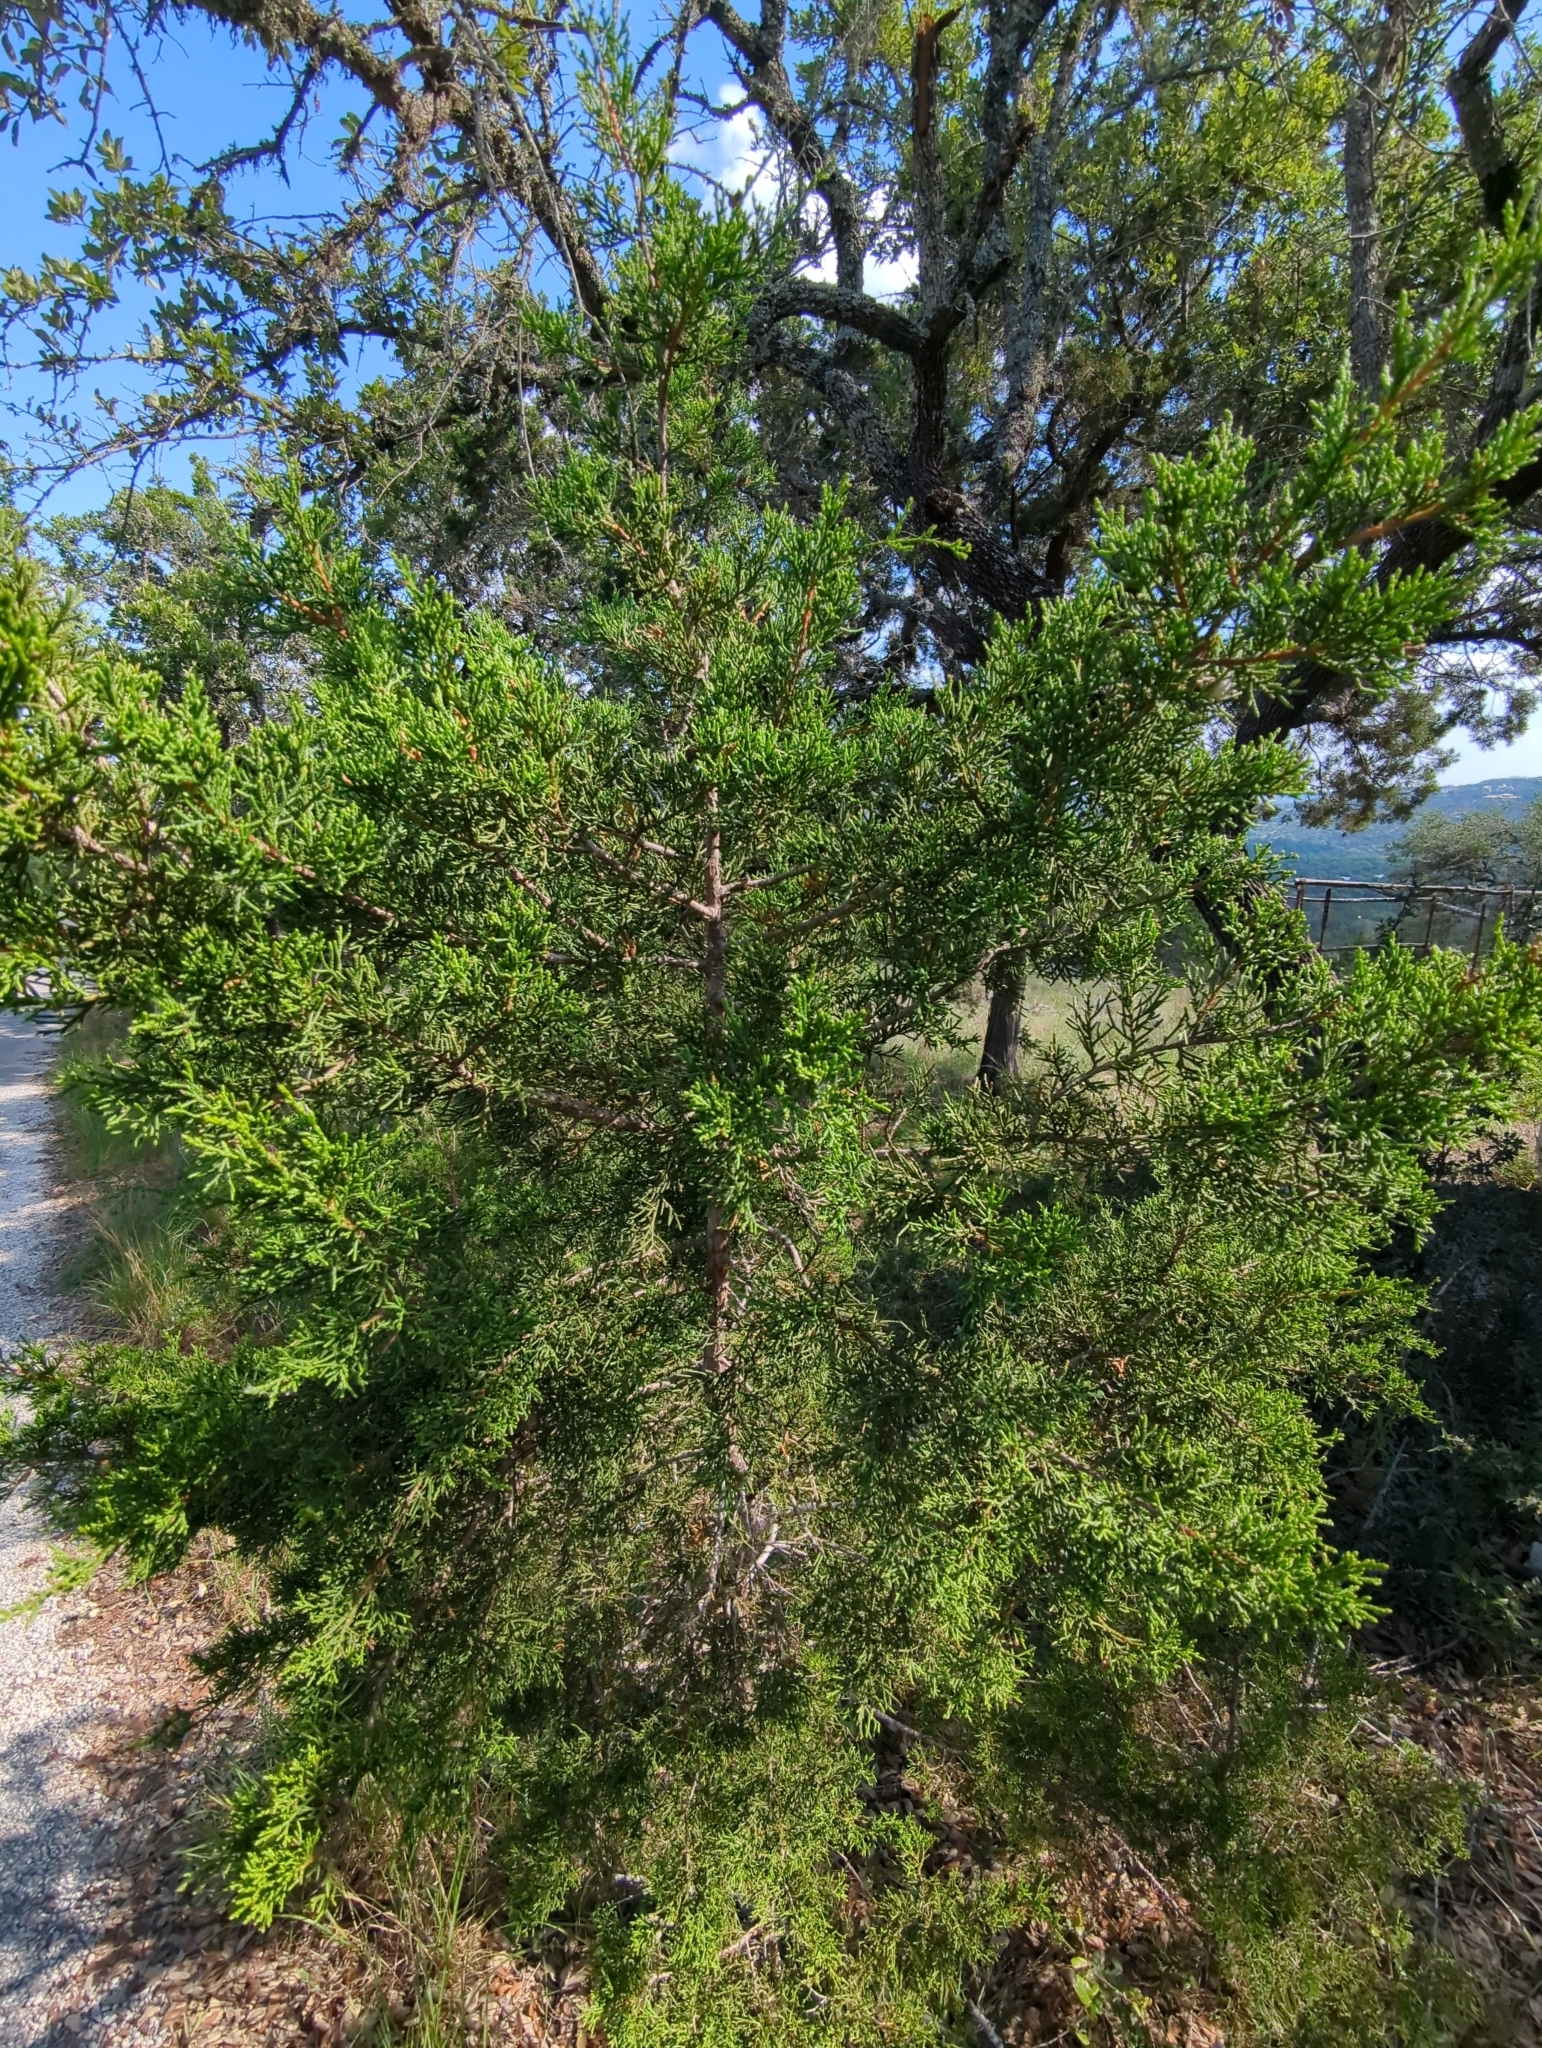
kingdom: Plantae
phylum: Tracheophyta
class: Pinopsida
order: Pinales
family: Cupressaceae
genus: Juniperus
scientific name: Juniperus ashei
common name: Mexican juniper
